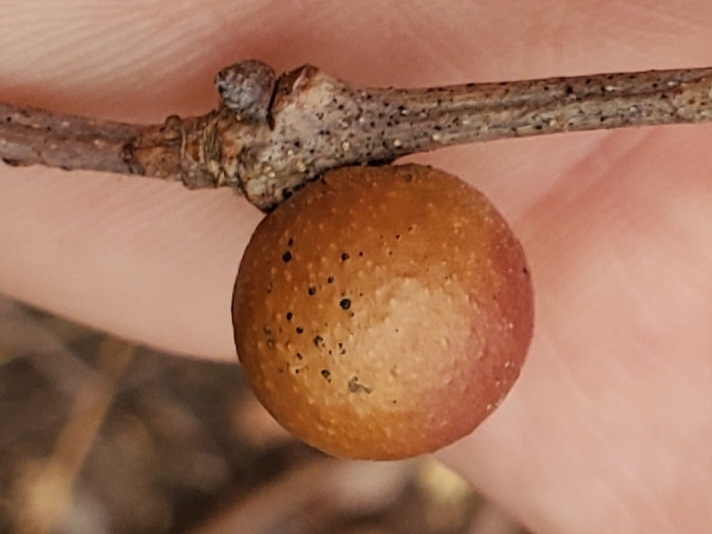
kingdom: Animalia
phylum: Arthropoda
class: Insecta
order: Hymenoptera
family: Cynipidae
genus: Disholcaspis
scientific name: Disholcaspis quercusglobulus
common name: Round bullet gall wasp
